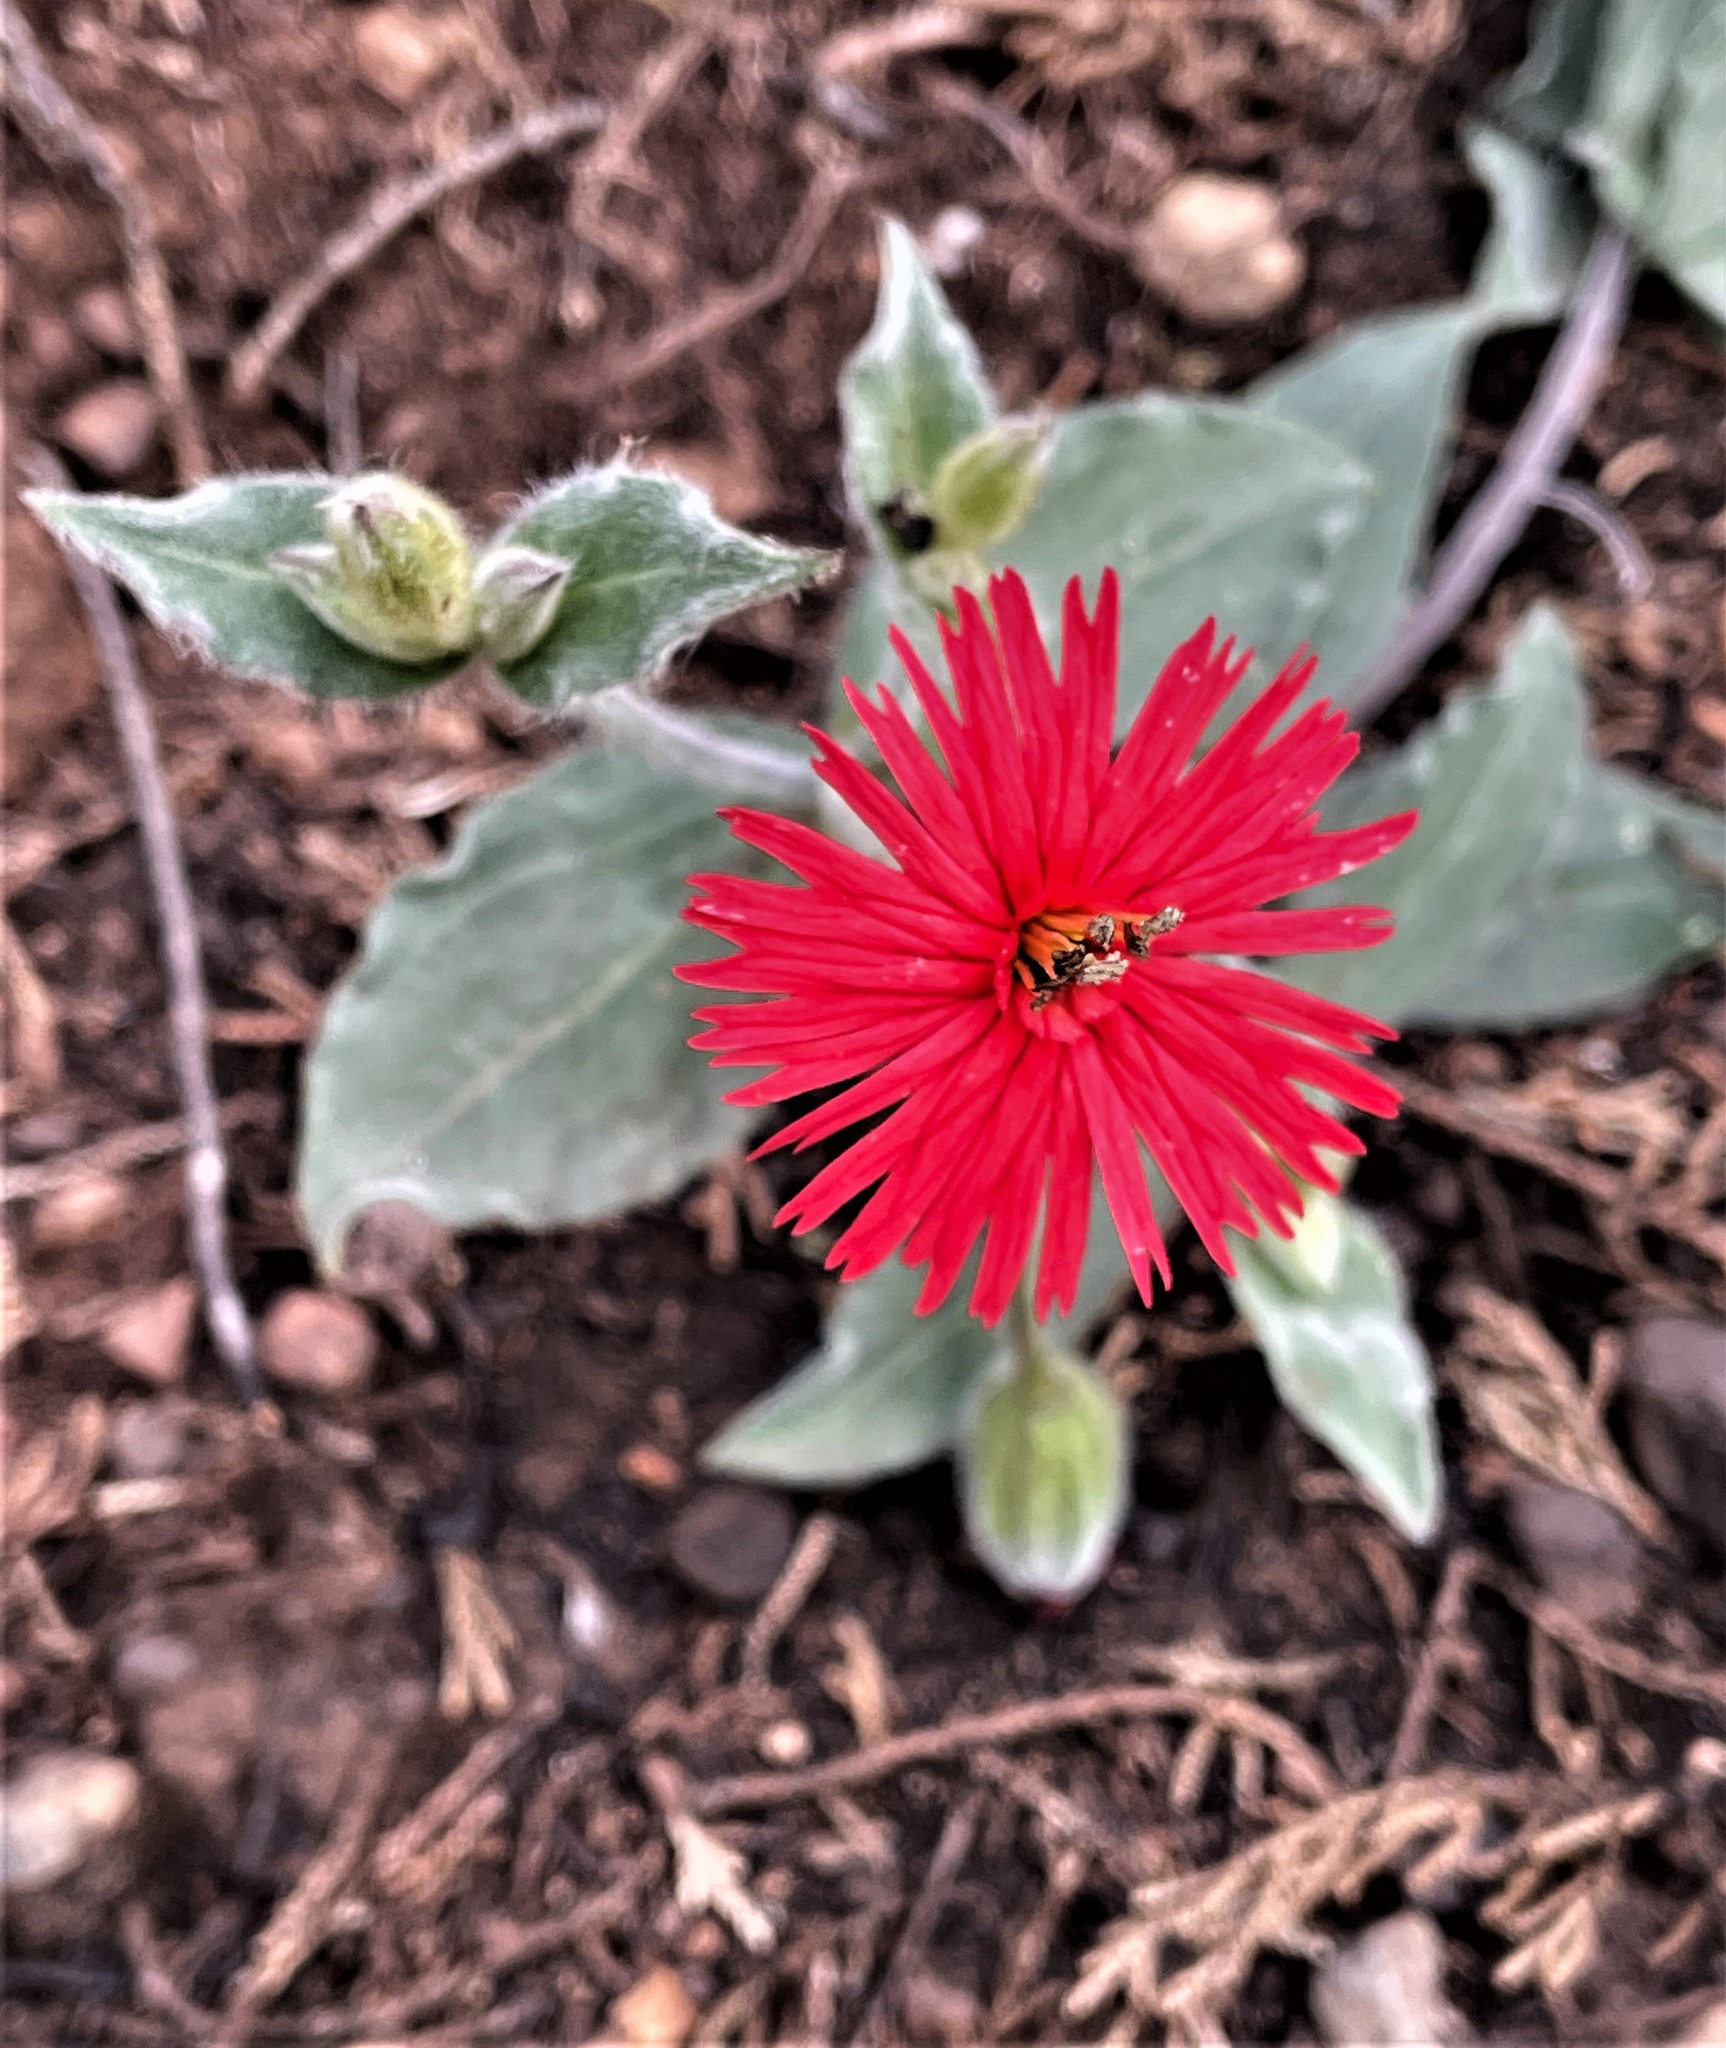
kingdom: Plantae
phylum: Tracheophyta
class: Magnoliopsida
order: Caryophyllales
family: Caryophyllaceae
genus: Silene
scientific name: Silene laciniata
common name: Indian-pink
